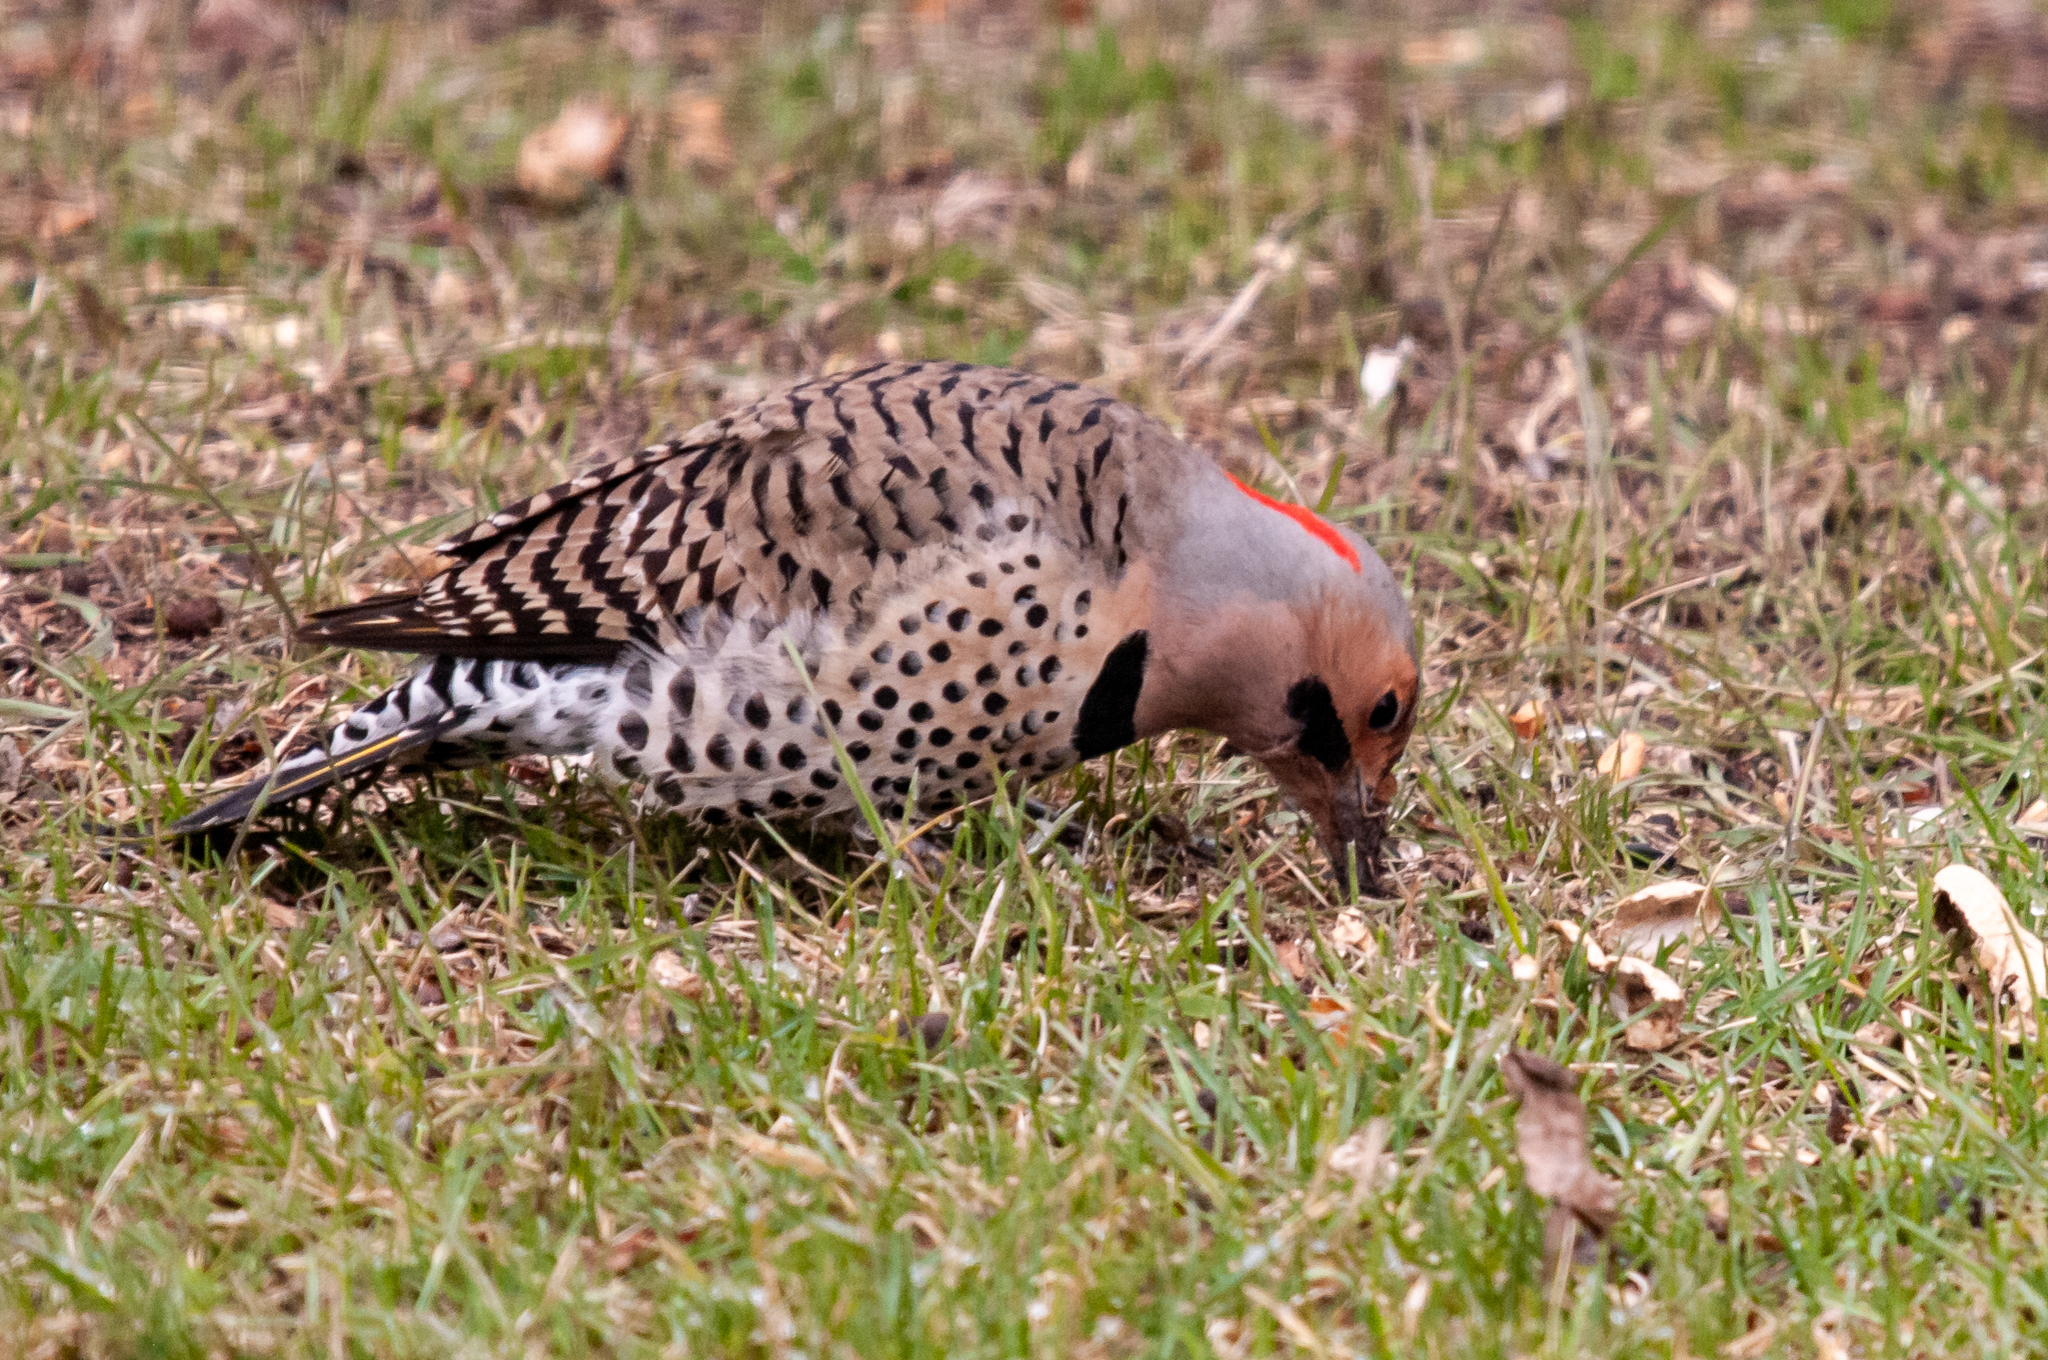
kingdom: Animalia
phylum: Chordata
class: Aves
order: Piciformes
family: Picidae
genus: Colaptes
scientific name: Colaptes auratus
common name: Northern flicker
